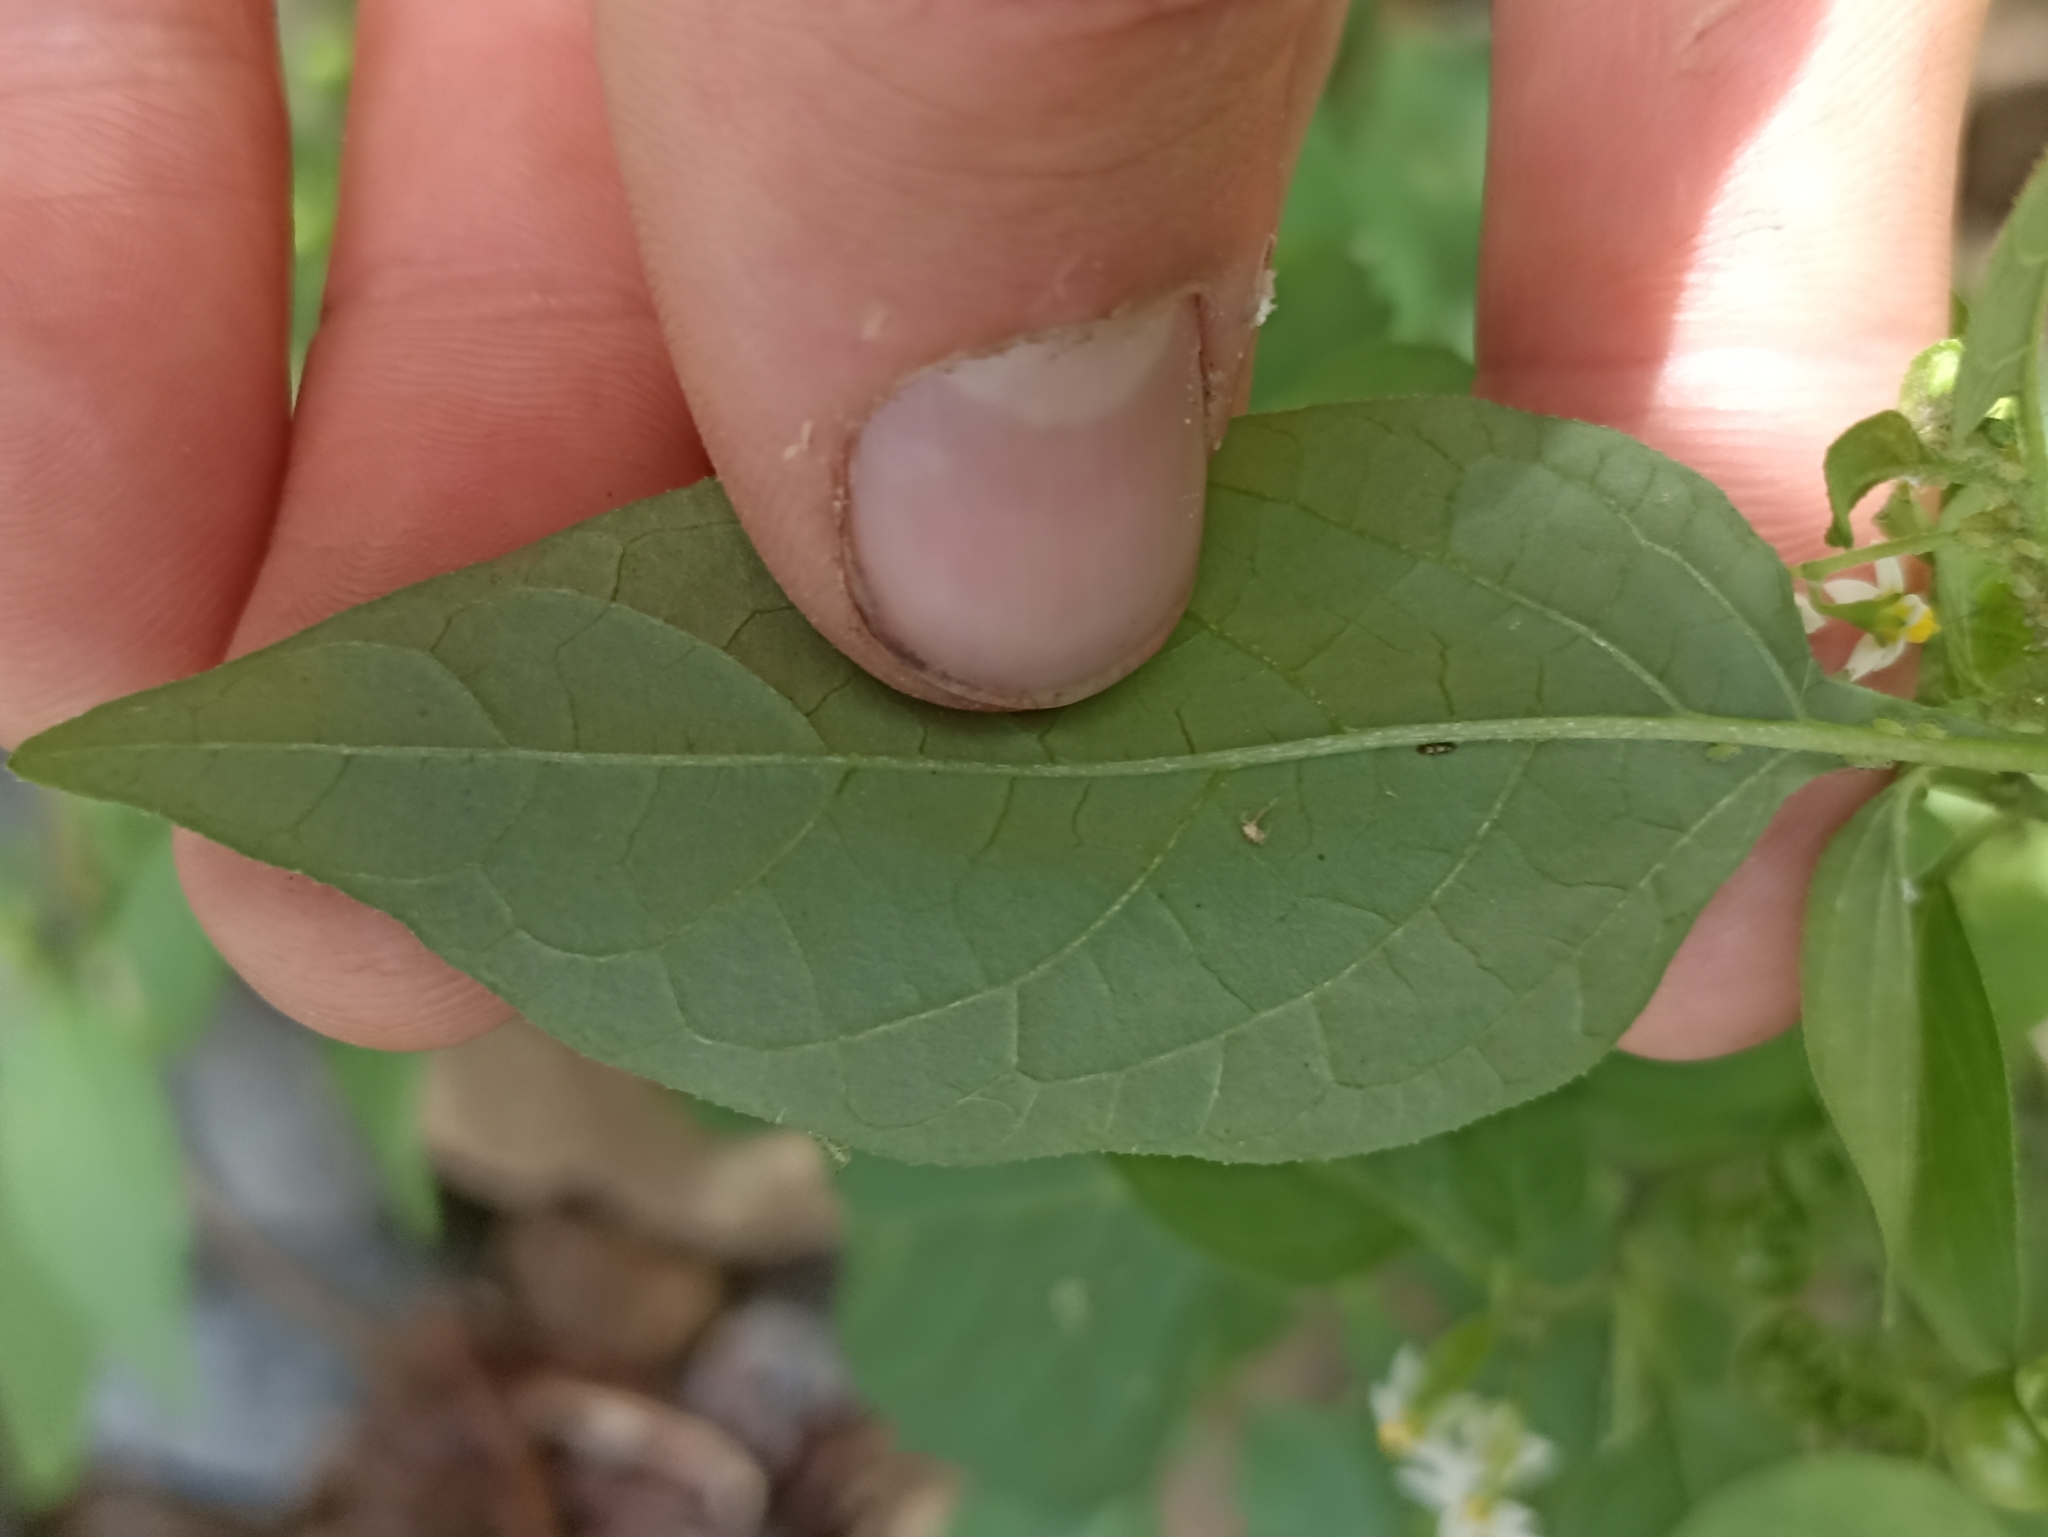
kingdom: Plantae
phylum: Tracheophyta
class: Magnoliopsida
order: Solanales
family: Solanaceae
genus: Solanum
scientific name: Solanum americanum
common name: American black nightshade
